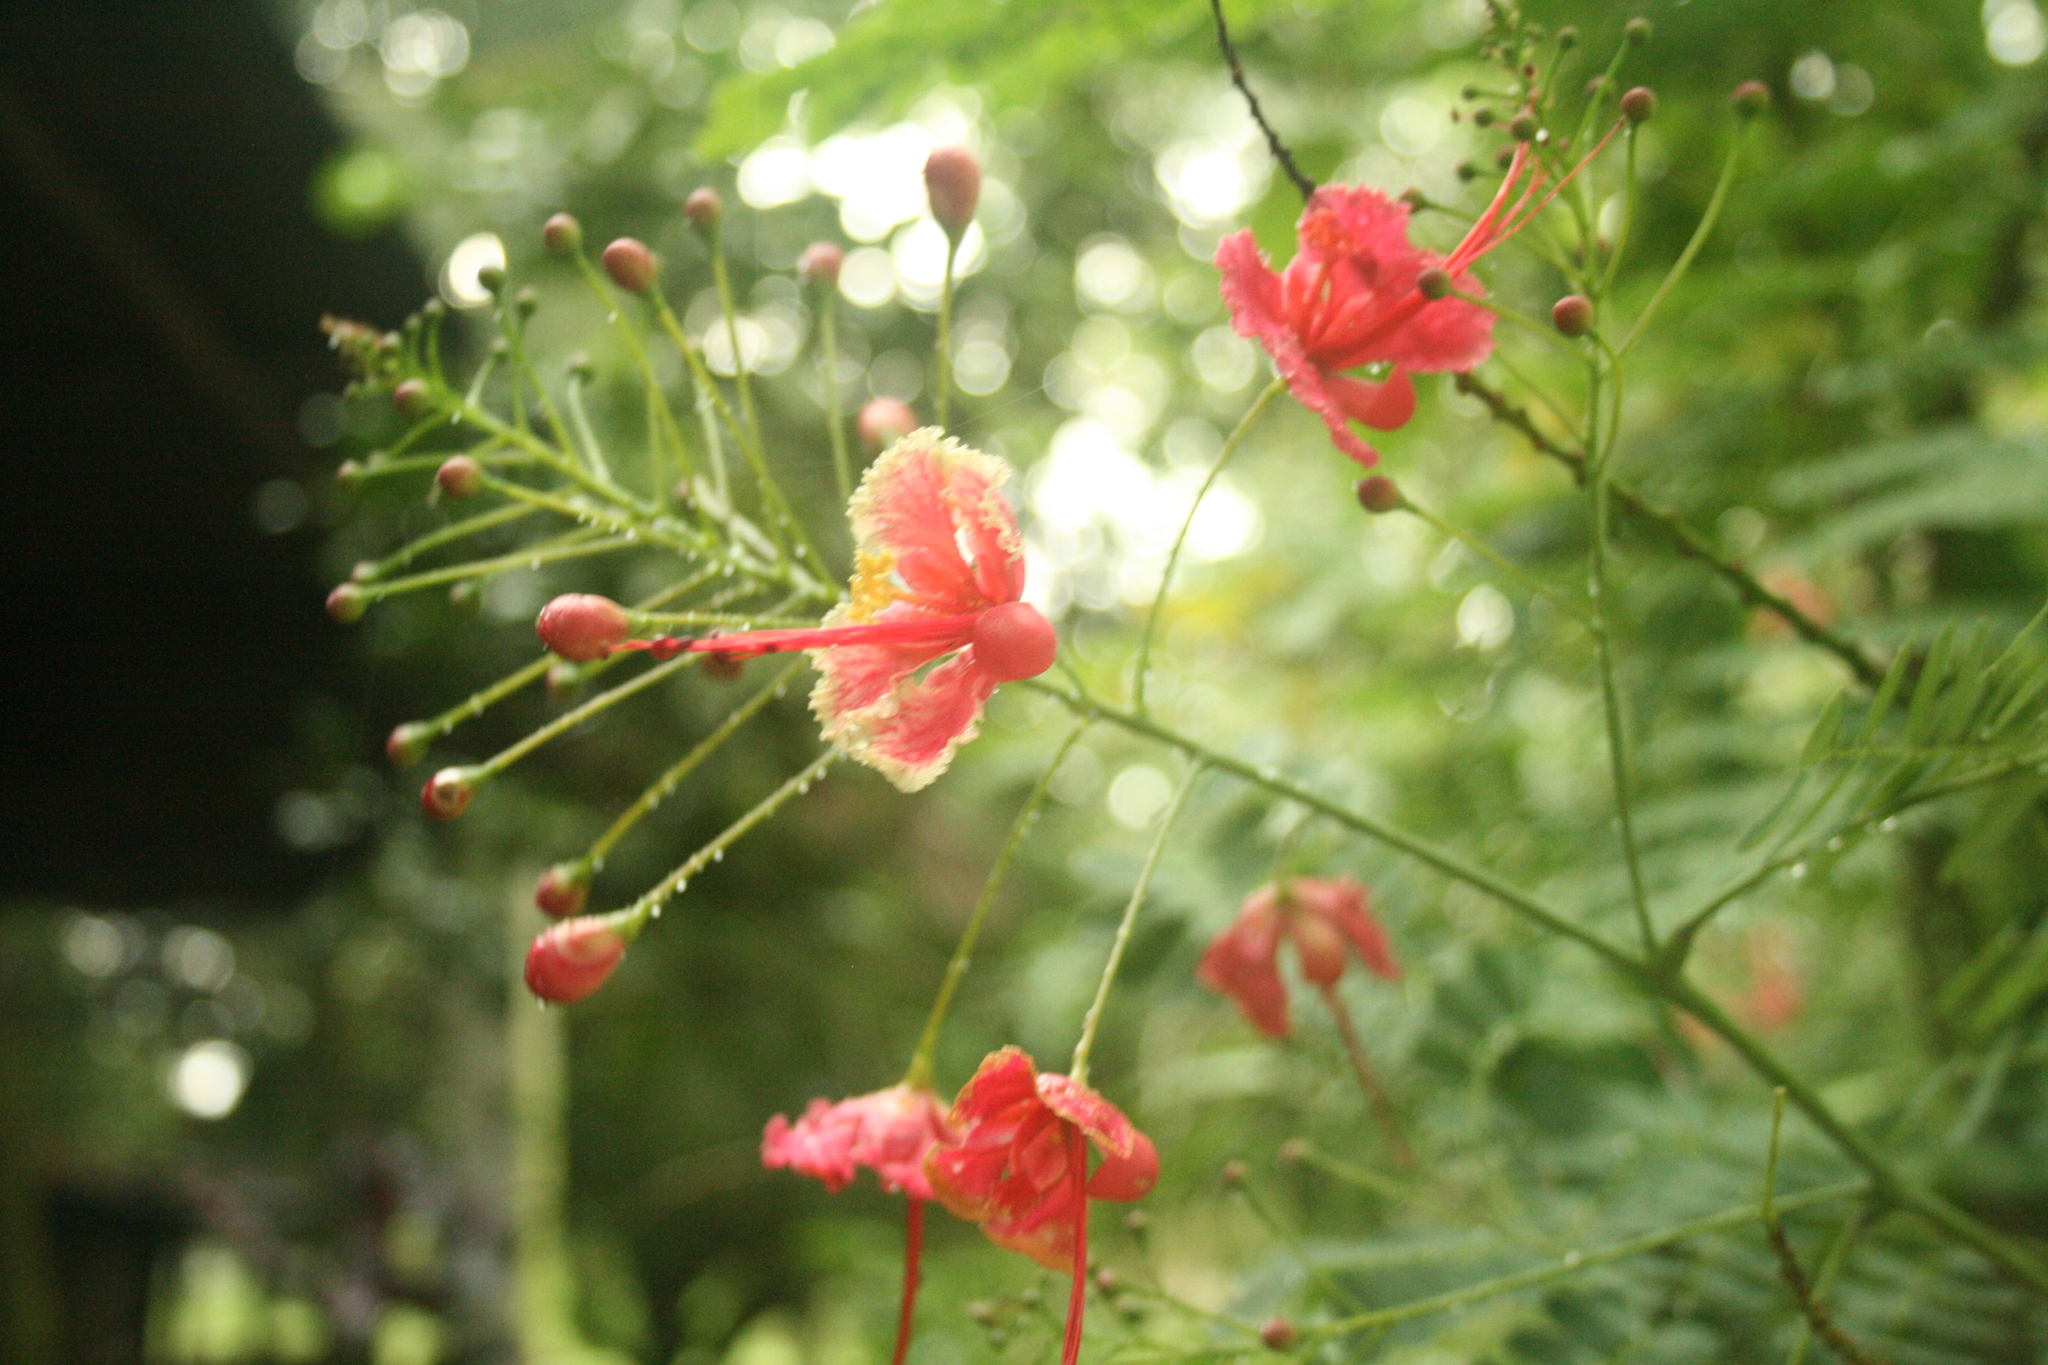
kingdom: Plantae
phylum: Tracheophyta
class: Magnoliopsida
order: Fabales
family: Fabaceae
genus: Caesalpinia
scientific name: Caesalpinia pulcherrima
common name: Pride-of-barbados
